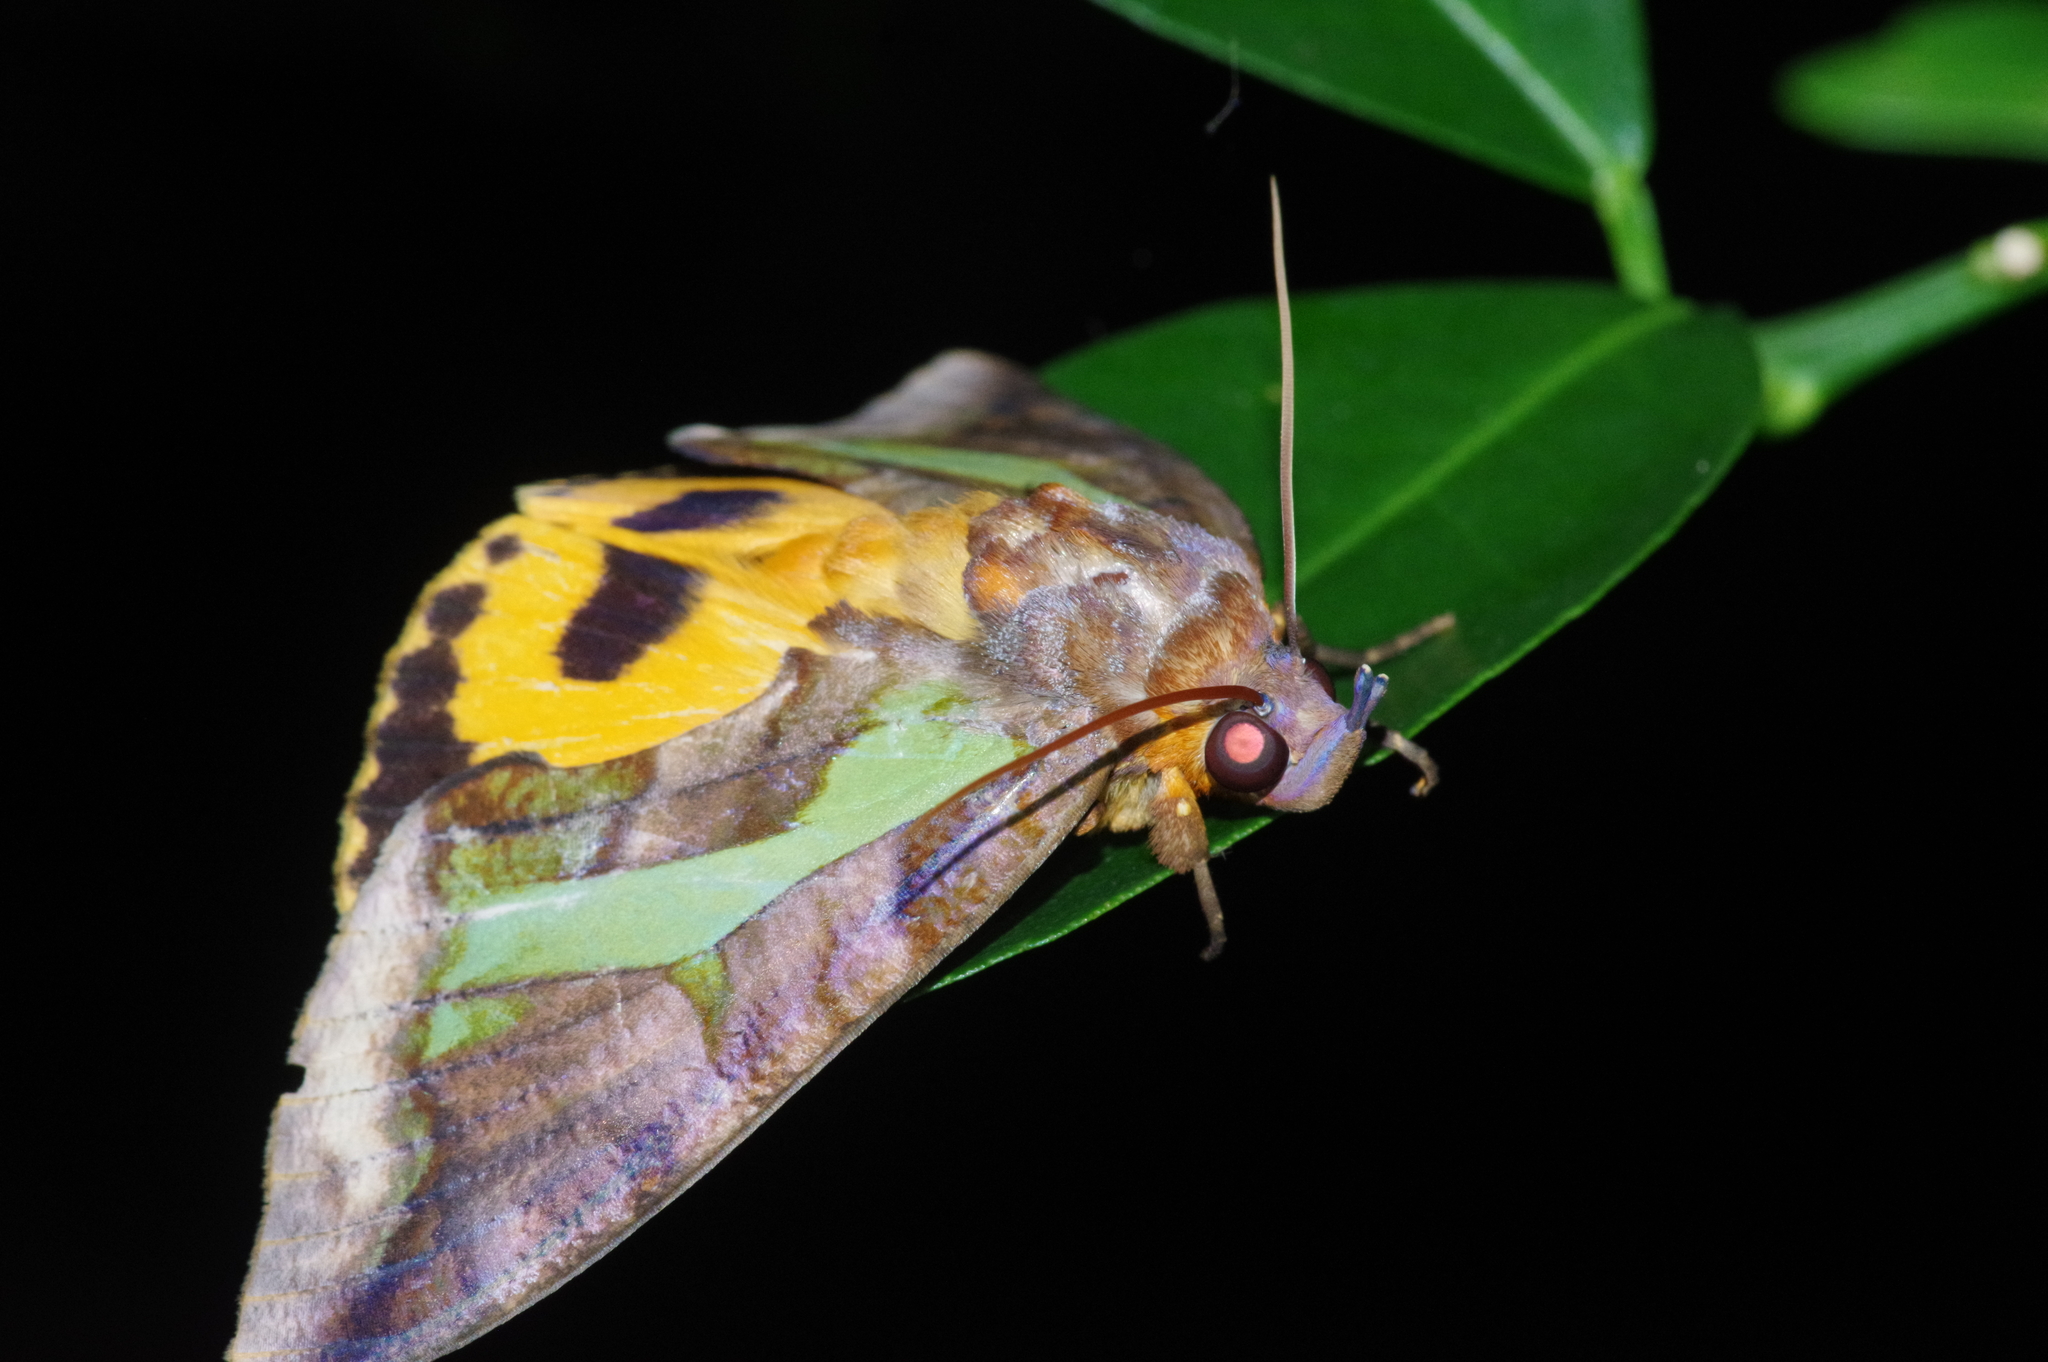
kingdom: Animalia
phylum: Arthropoda
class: Insecta
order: Lepidoptera
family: Erebidae
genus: Eudocima
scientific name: Eudocima homaena
